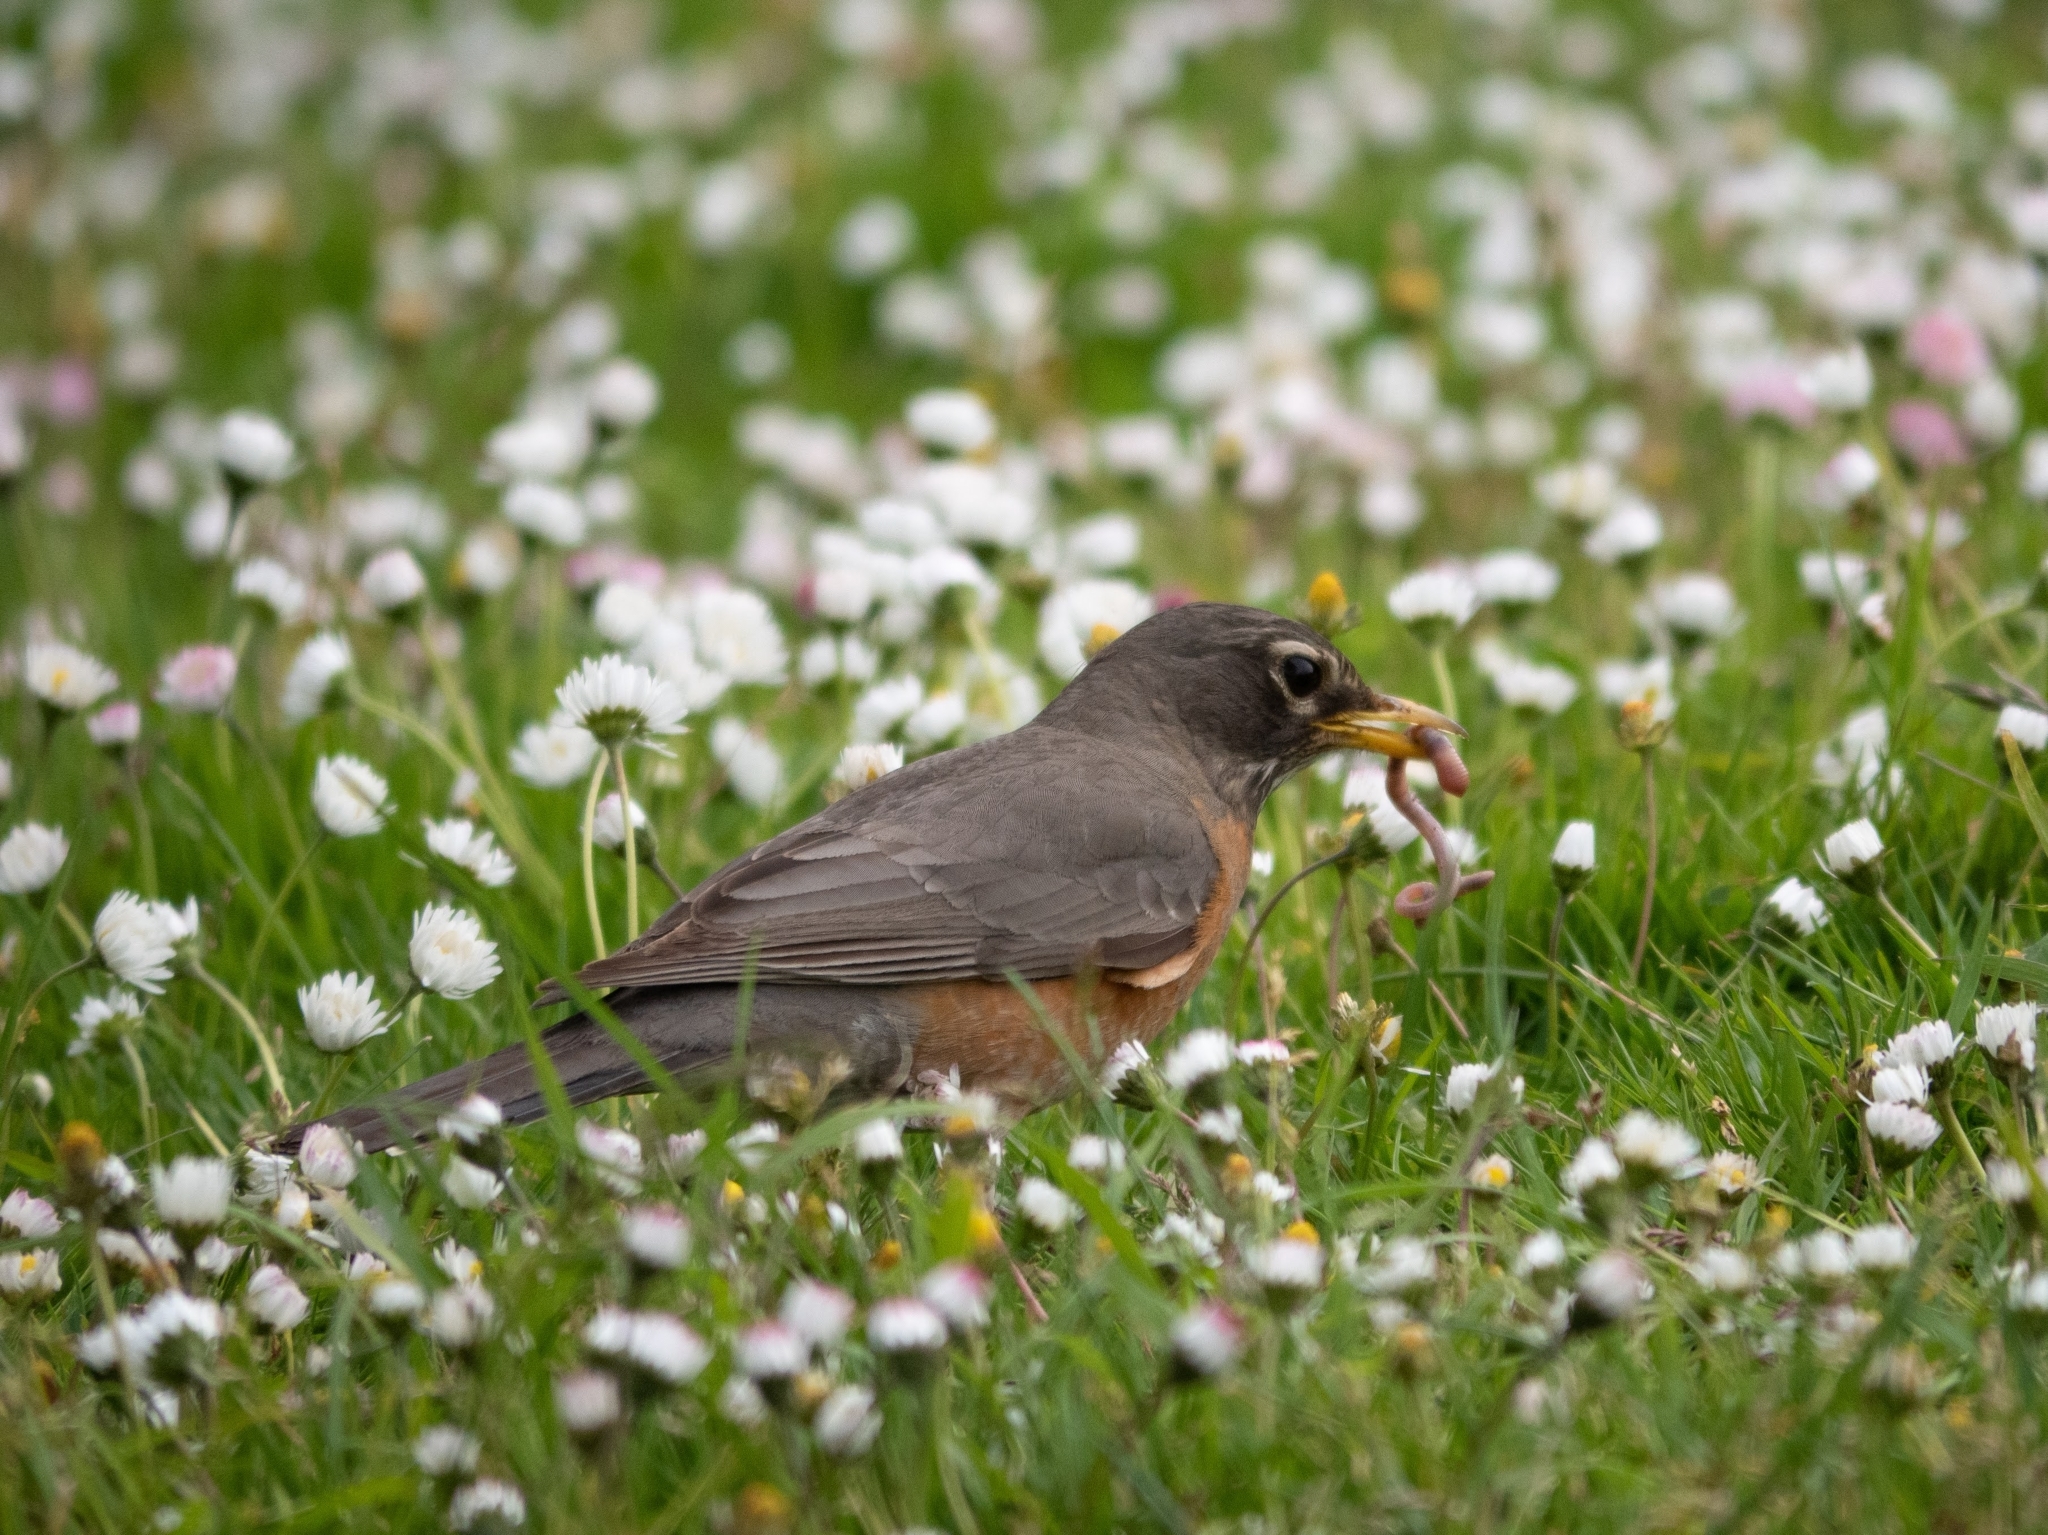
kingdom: Animalia
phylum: Chordata
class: Aves
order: Passeriformes
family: Turdidae
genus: Turdus
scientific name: Turdus migratorius
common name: American robin
